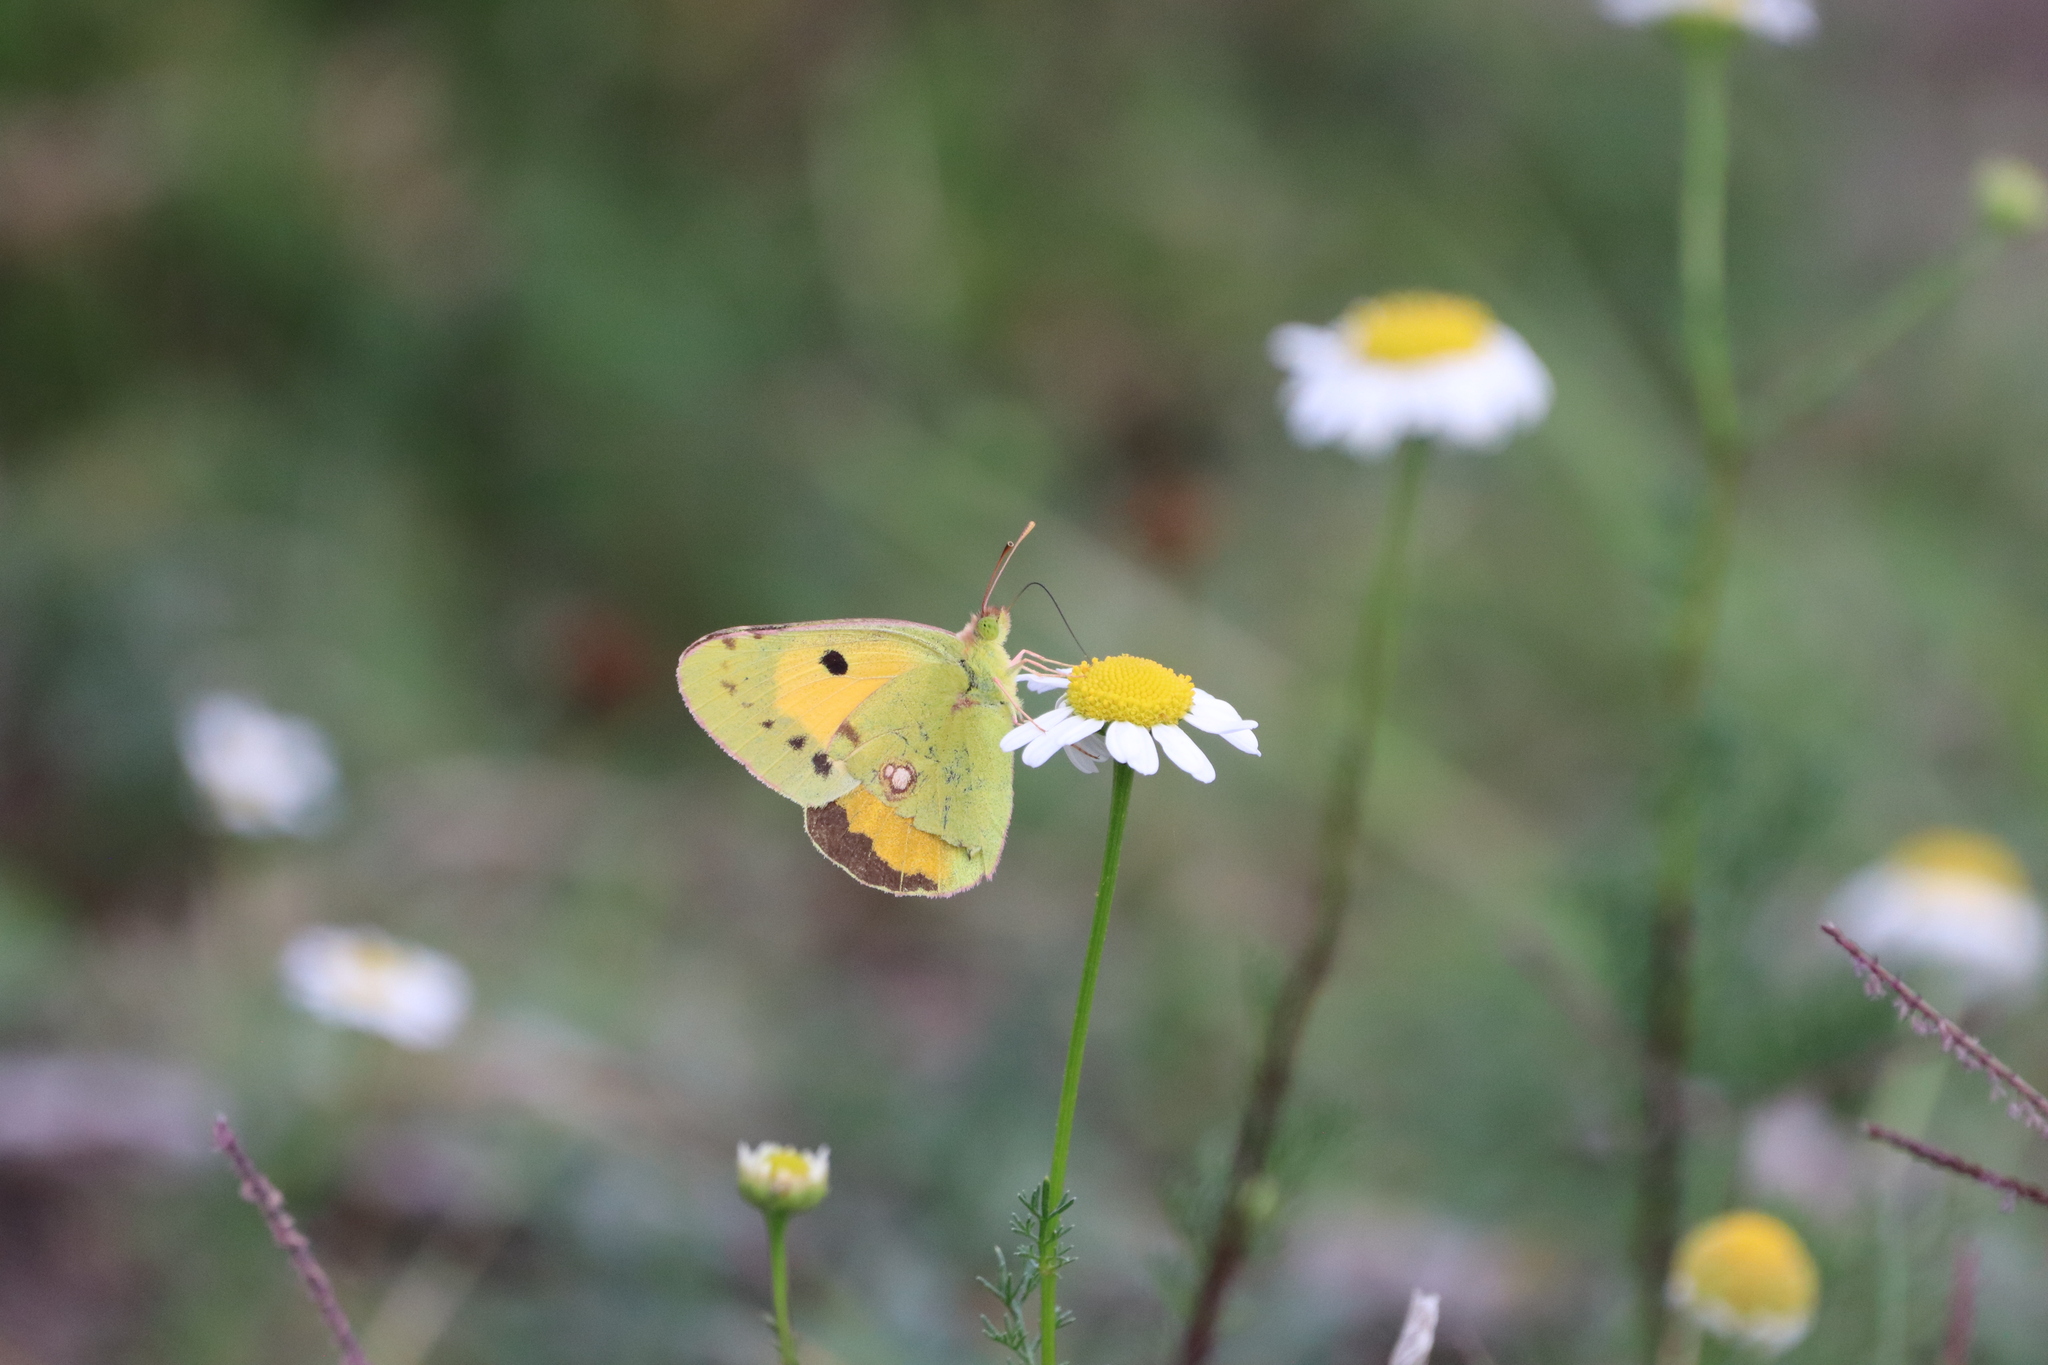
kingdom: Animalia
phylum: Arthropoda
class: Insecta
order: Lepidoptera
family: Pieridae
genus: Colias
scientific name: Colias croceus
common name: Clouded yellow
